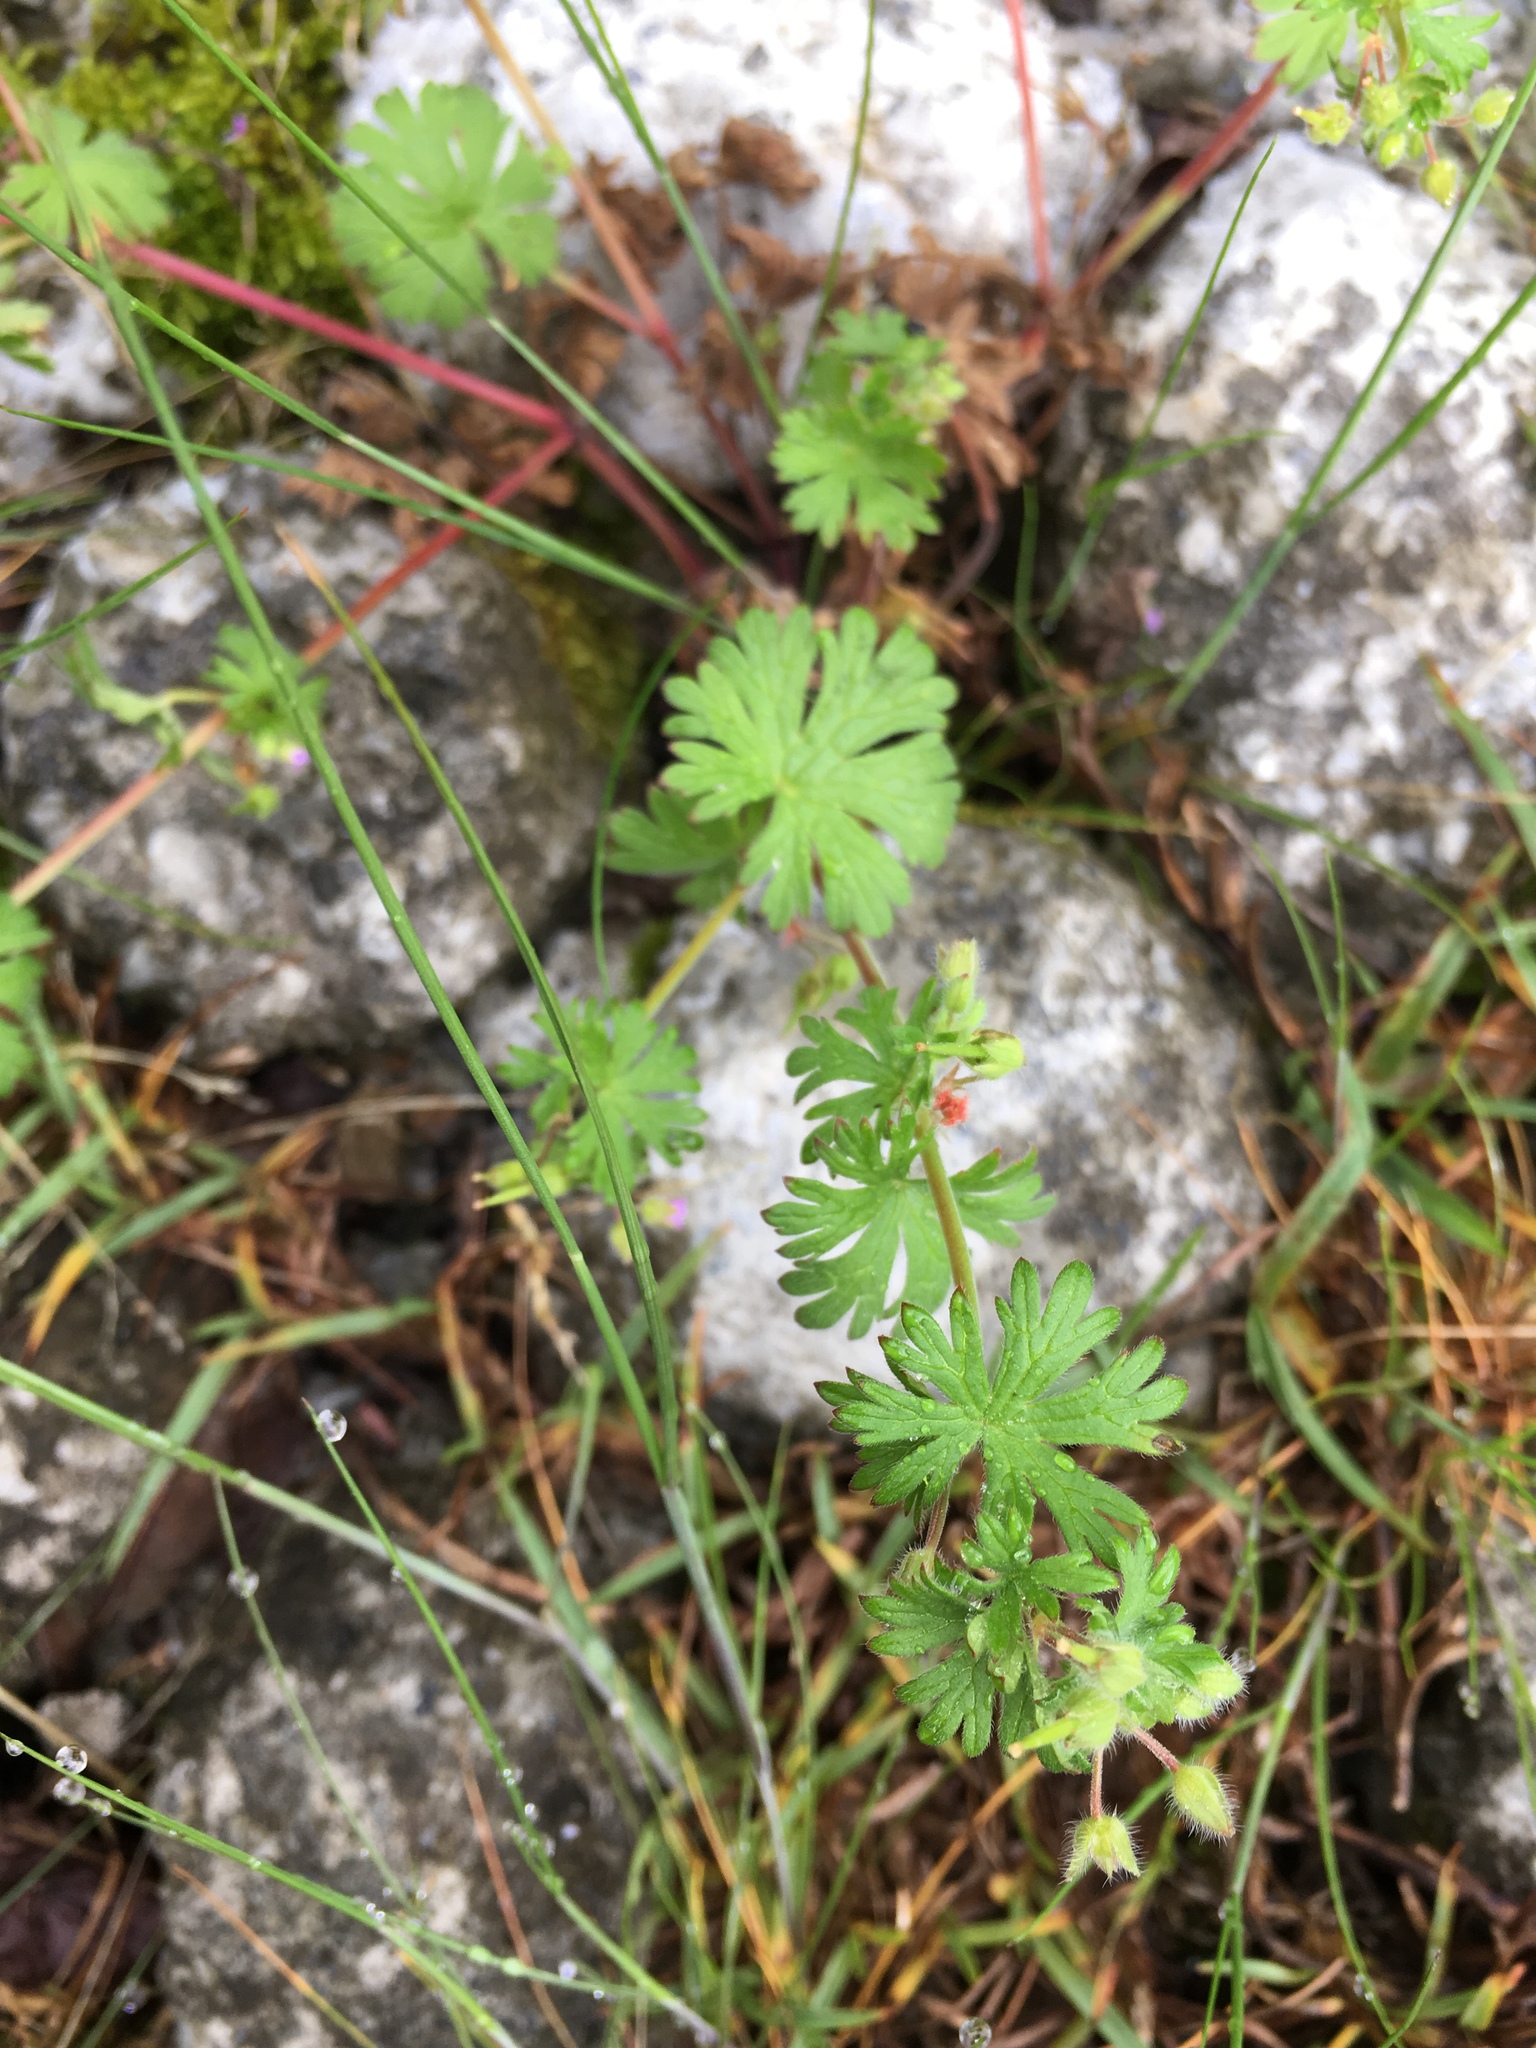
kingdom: Plantae
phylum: Tracheophyta
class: Magnoliopsida
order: Geraniales
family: Geraniaceae
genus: Geranium
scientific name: Geranium pusillum
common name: Small geranium
